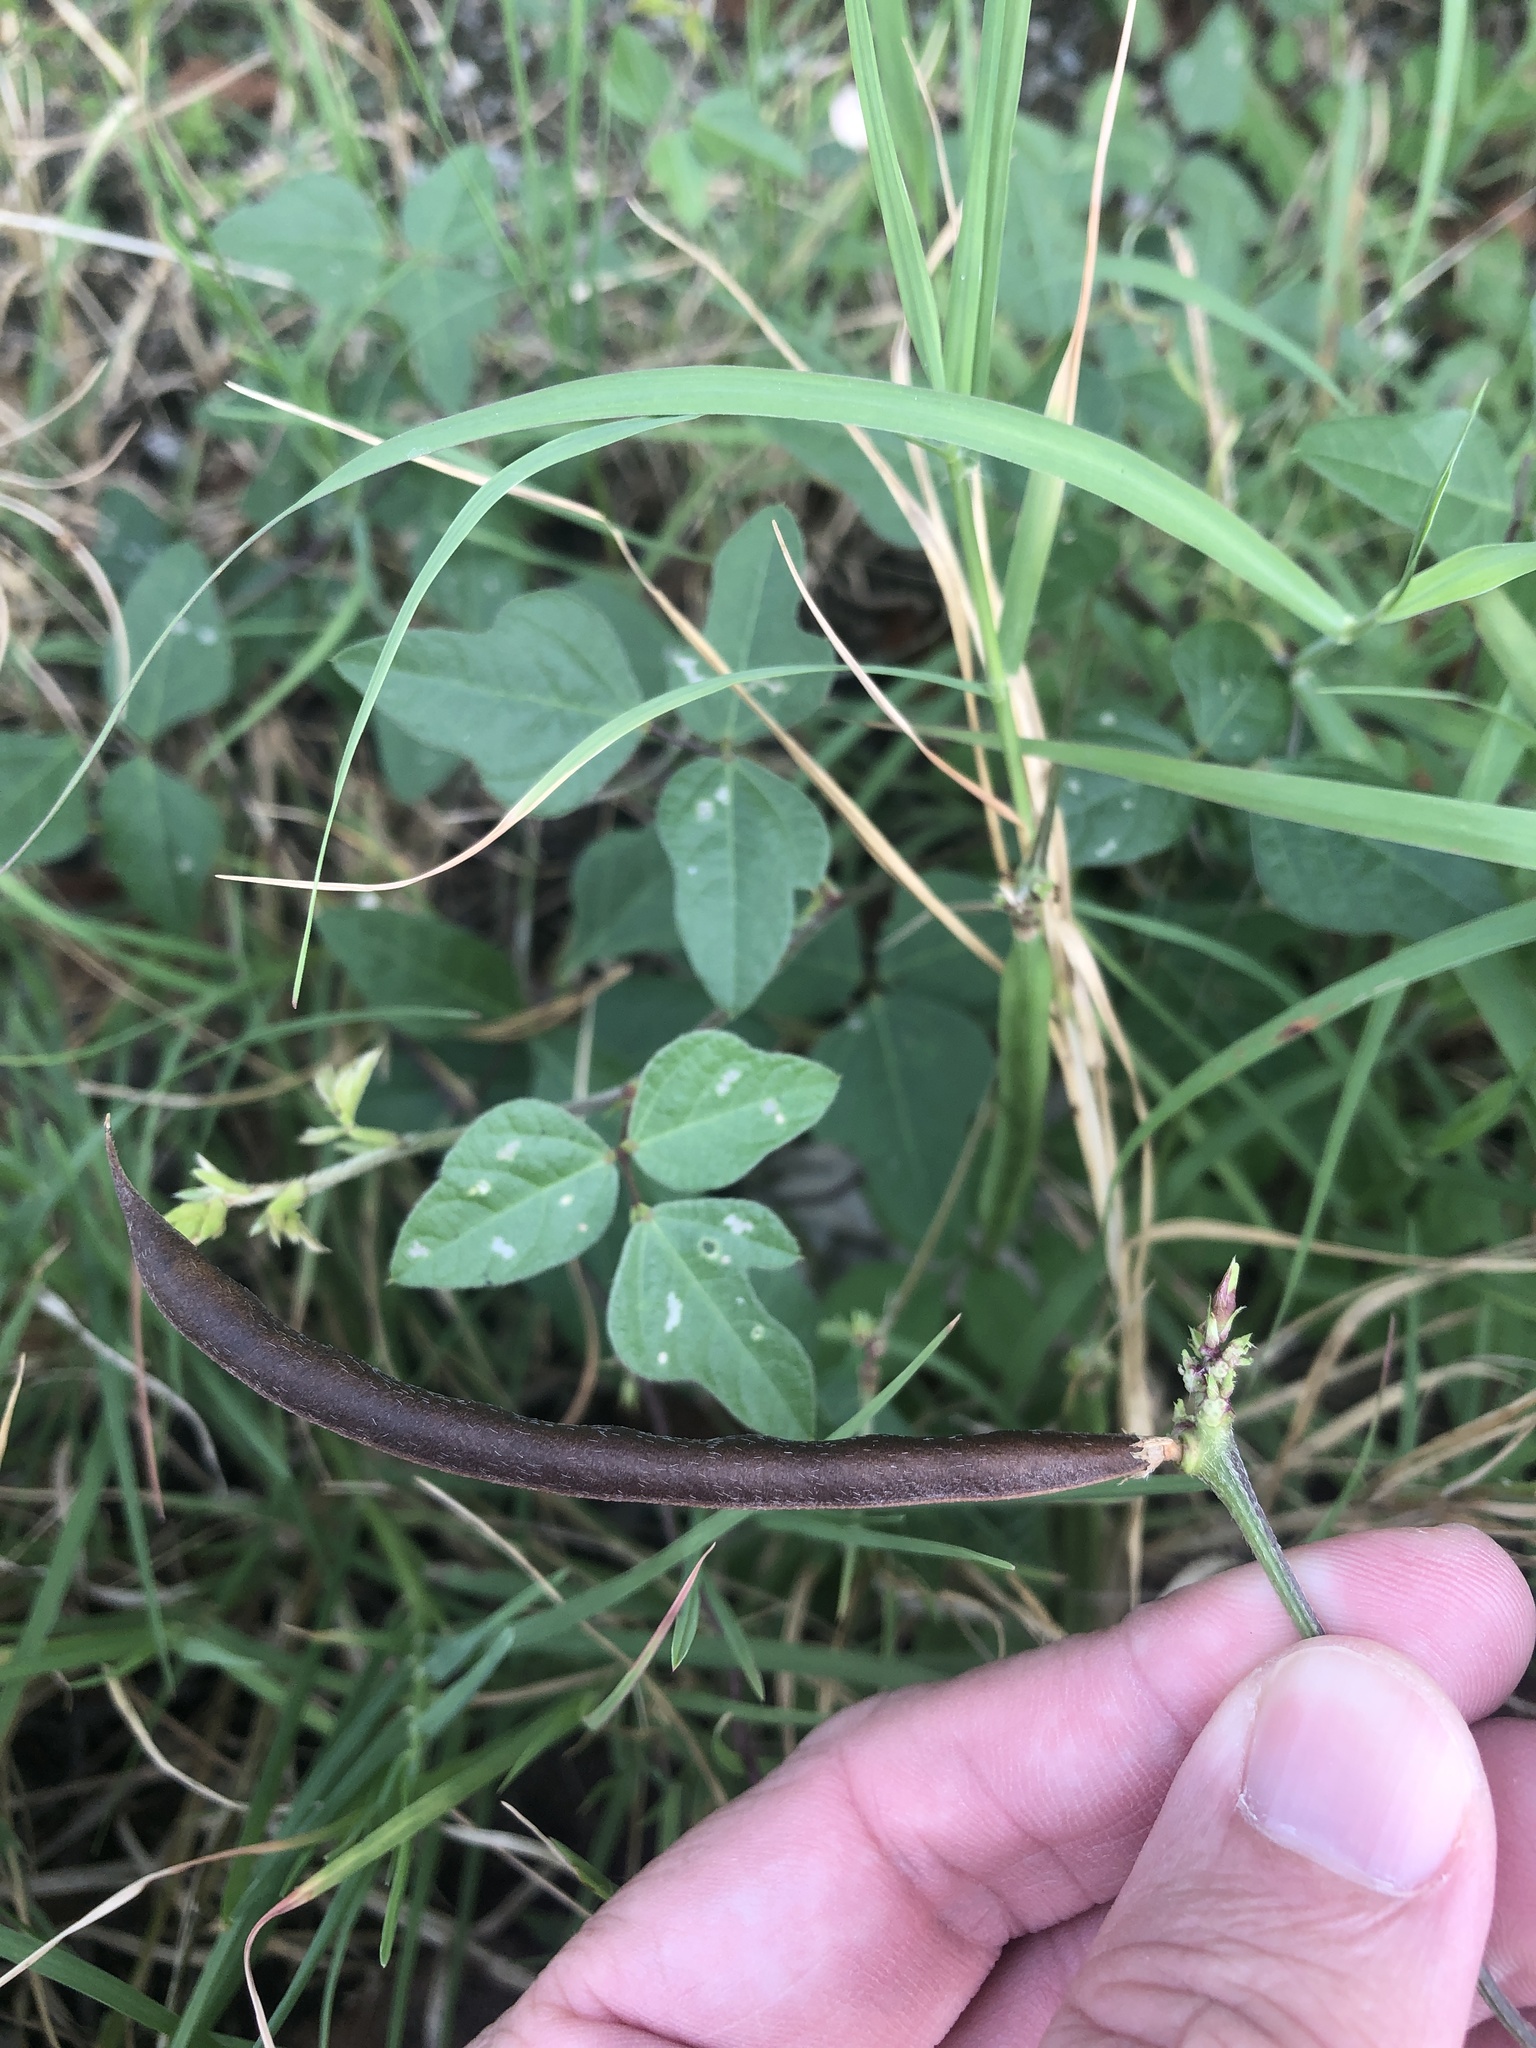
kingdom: Plantae
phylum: Tracheophyta
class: Magnoliopsida
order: Fabales
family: Fabaceae
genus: Strophostyles
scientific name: Strophostyles helvola
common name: Trailing wild bean
